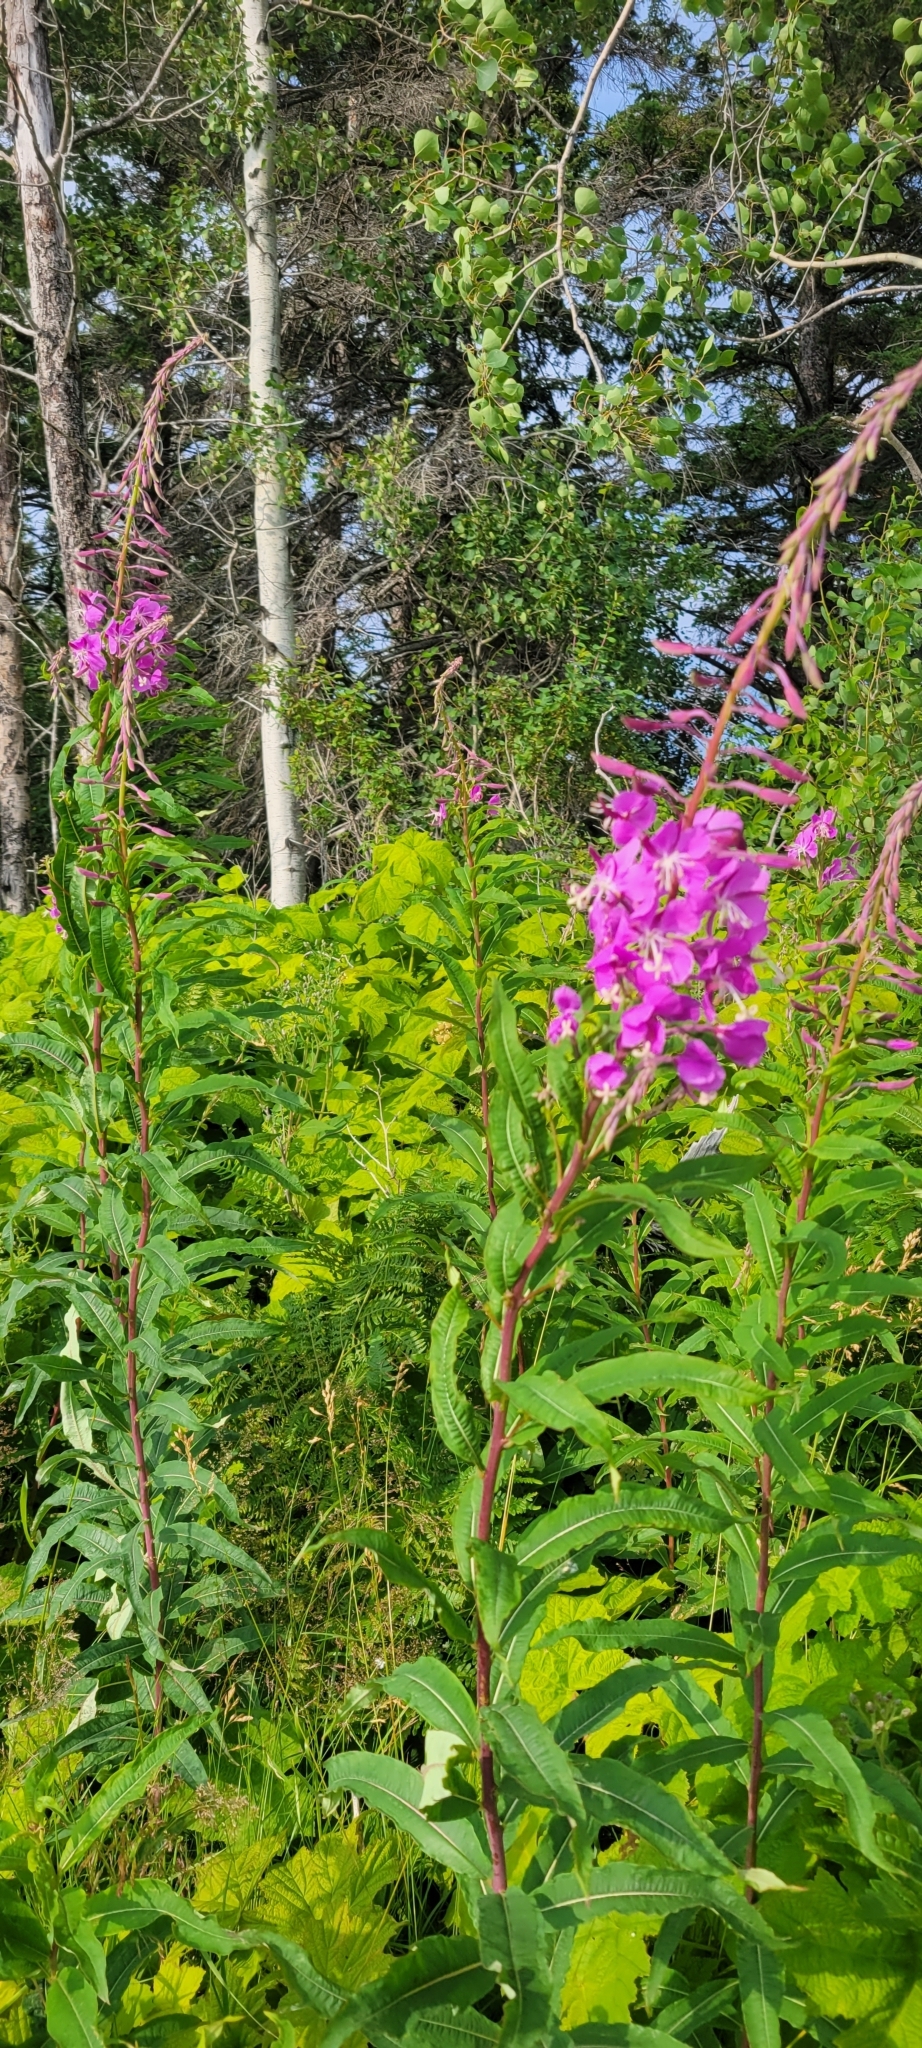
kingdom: Plantae
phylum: Tracheophyta
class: Magnoliopsida
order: Myrtales
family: Onagraceae
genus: Chamaenerion
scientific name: Chamaenerion angustifolium
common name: Fireweed
